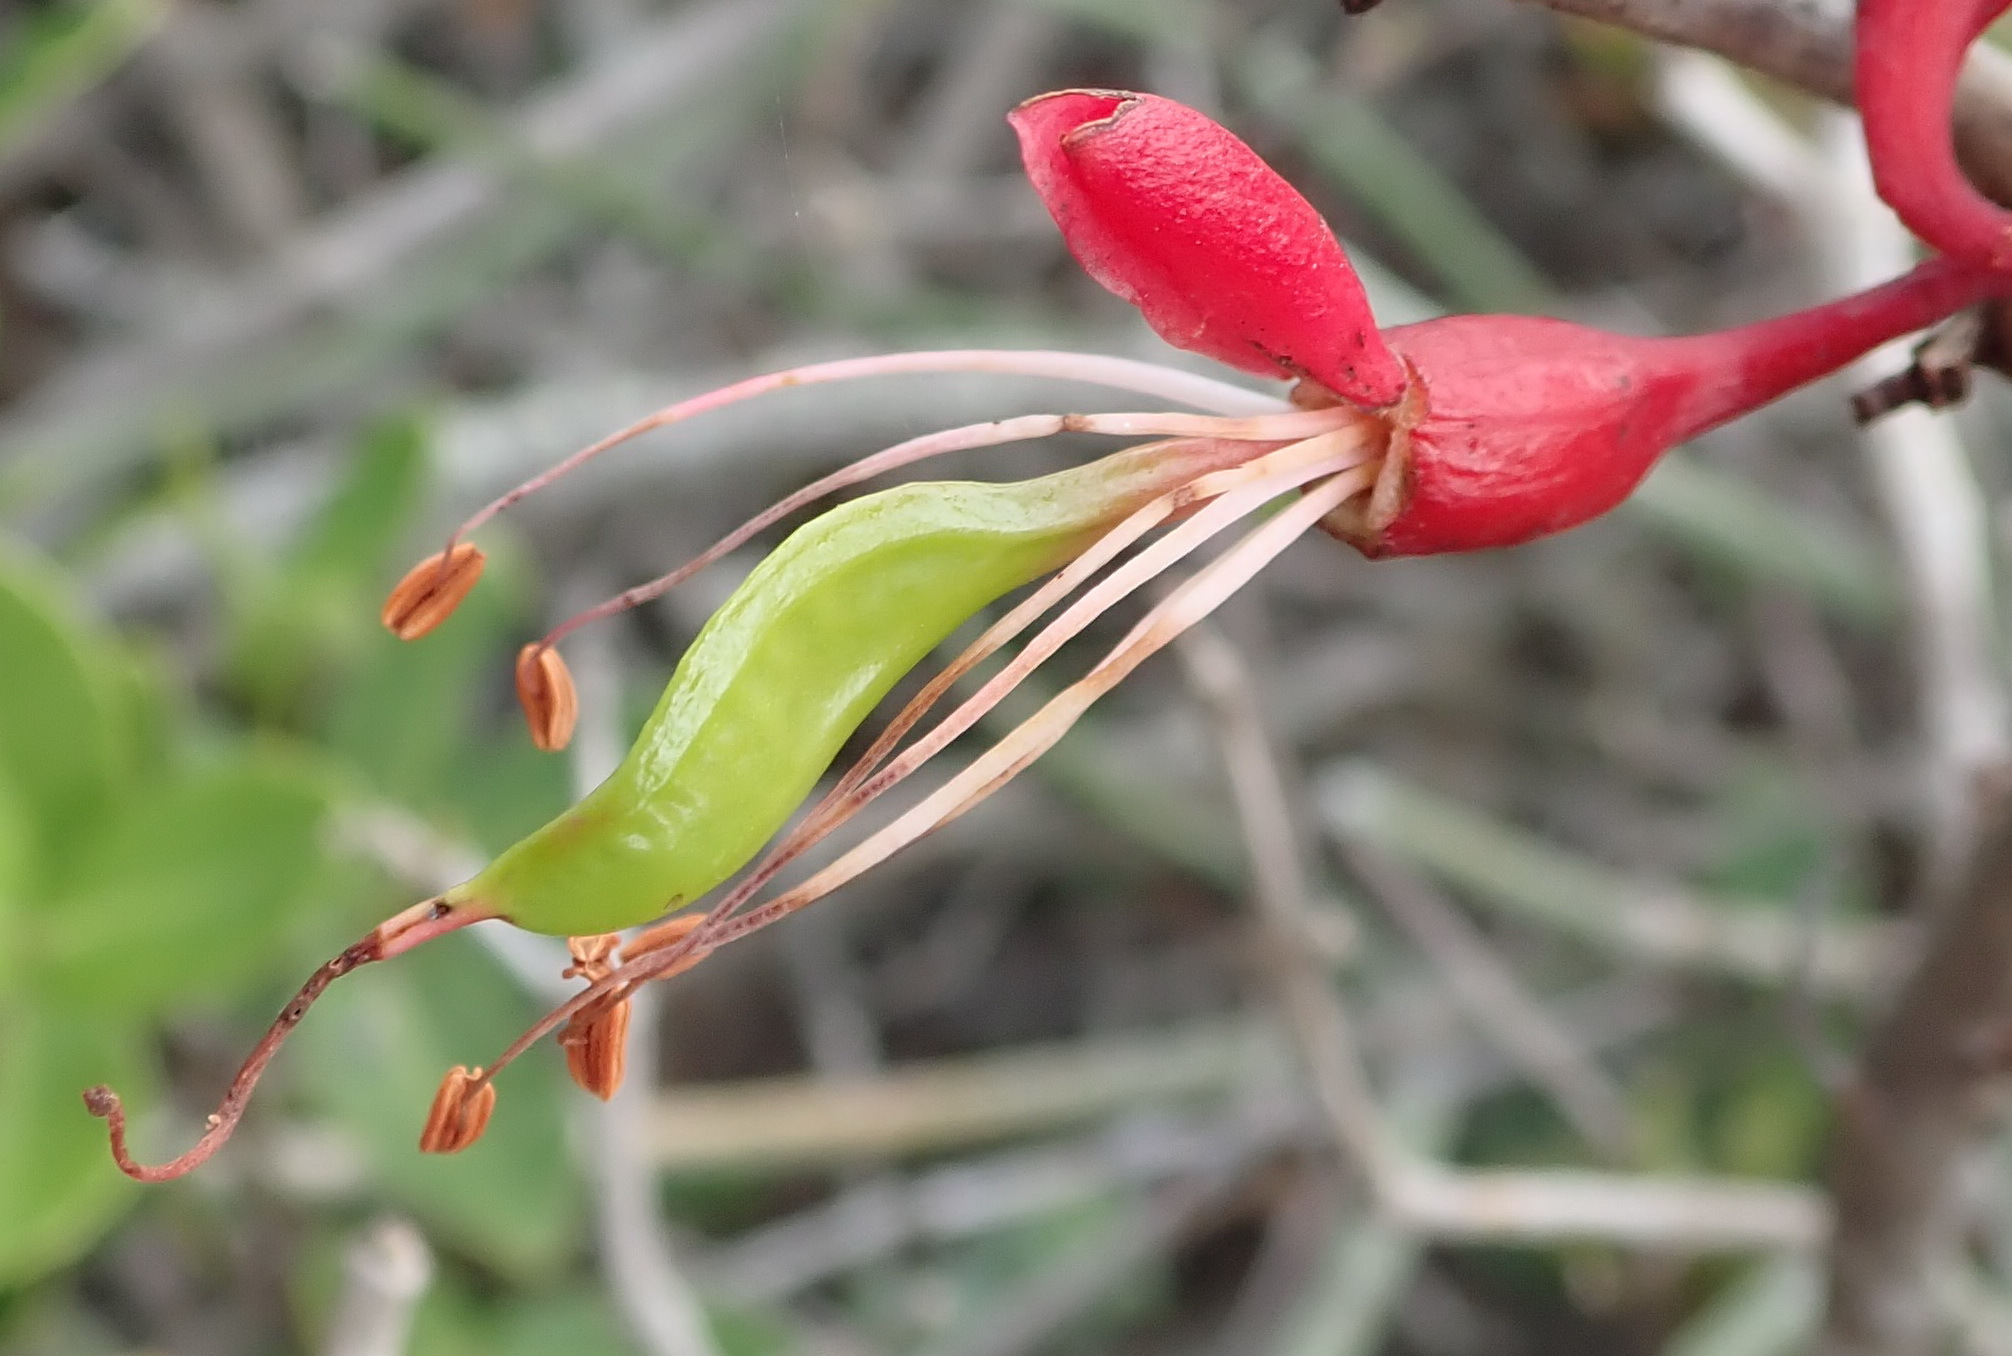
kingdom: Plantae
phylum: Tracheophyta
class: Magnoliopsida
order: Fabales
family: Fabaceae
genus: Schotia
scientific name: Schotia afra
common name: Hottentot's bean
